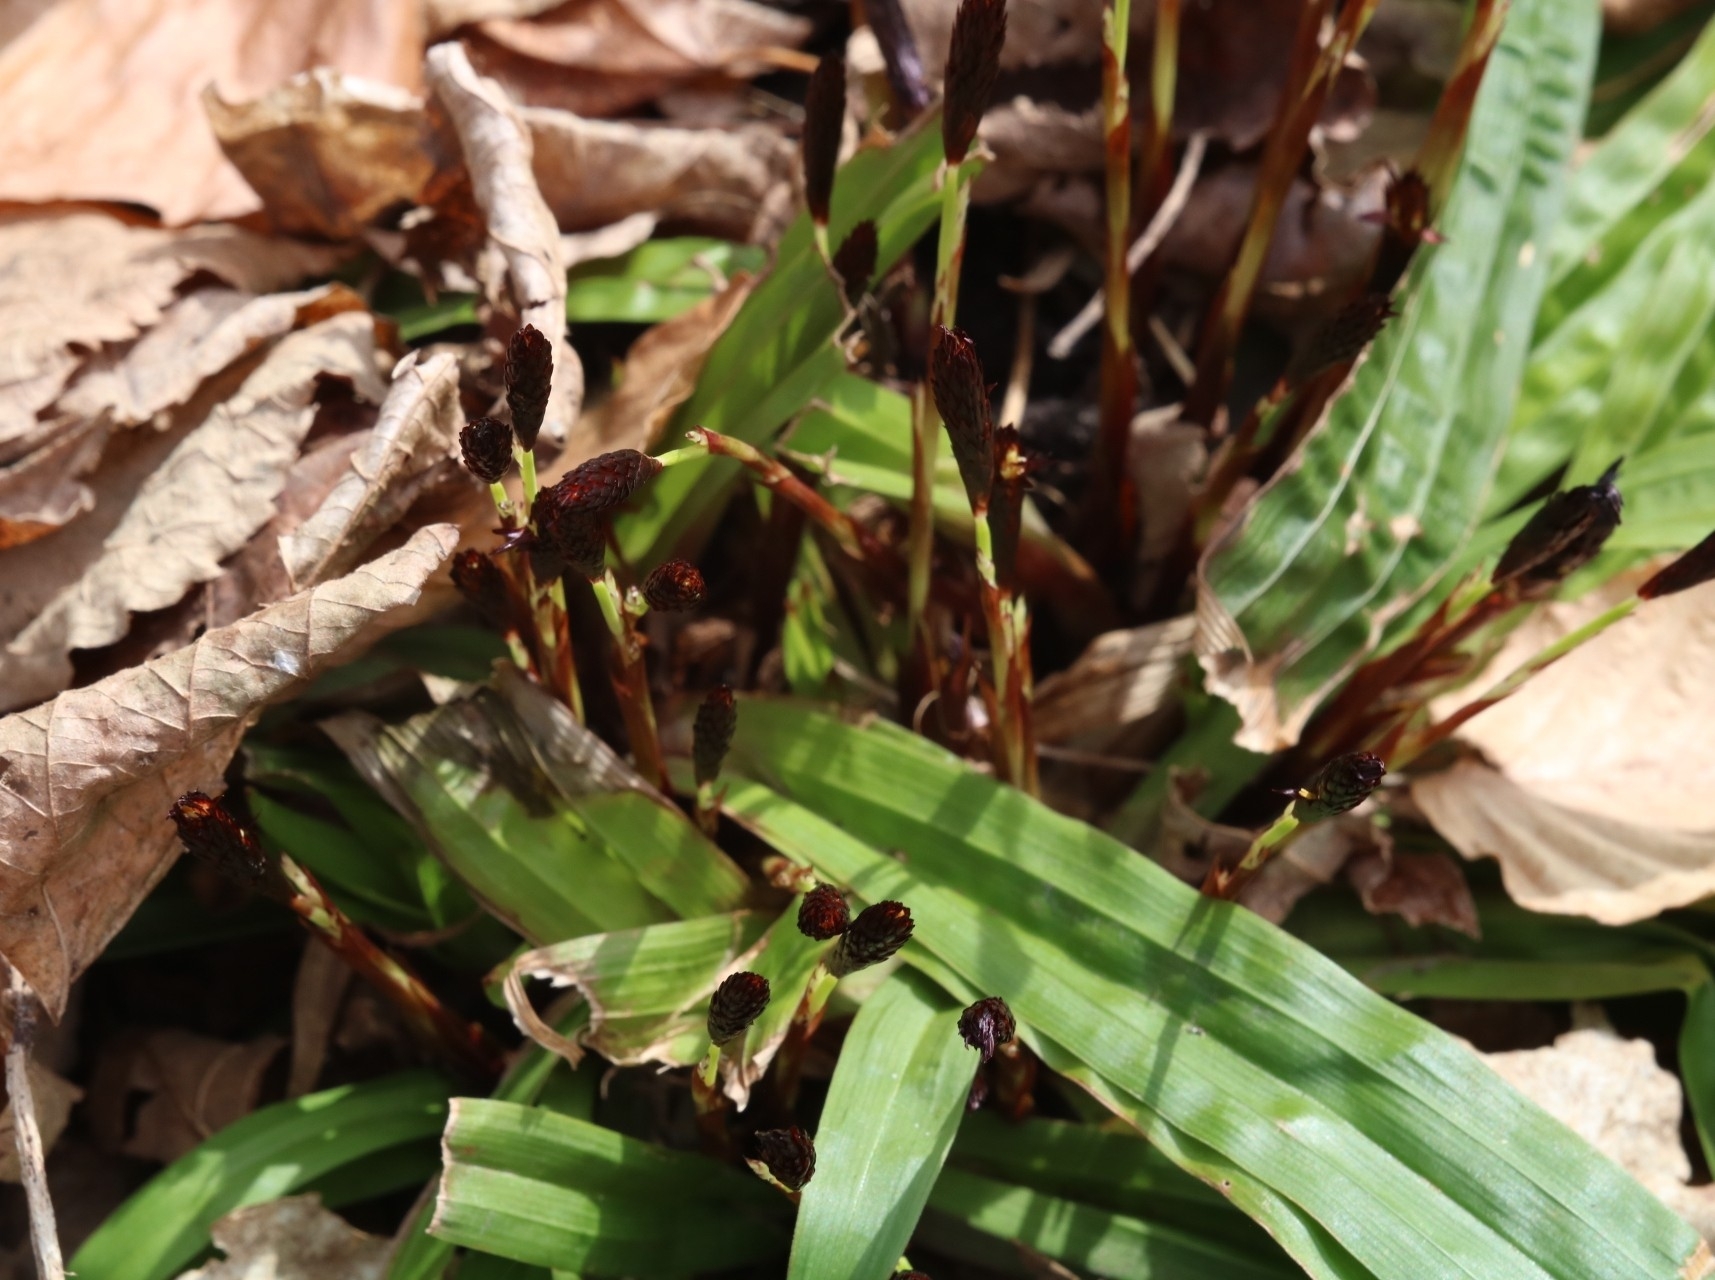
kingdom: Plantae
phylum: Tracheophyta
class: Liliopsida
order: Poales
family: Cyperaceae
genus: Carex
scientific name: Carex plantaginea
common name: Plantain-leaved sedge
